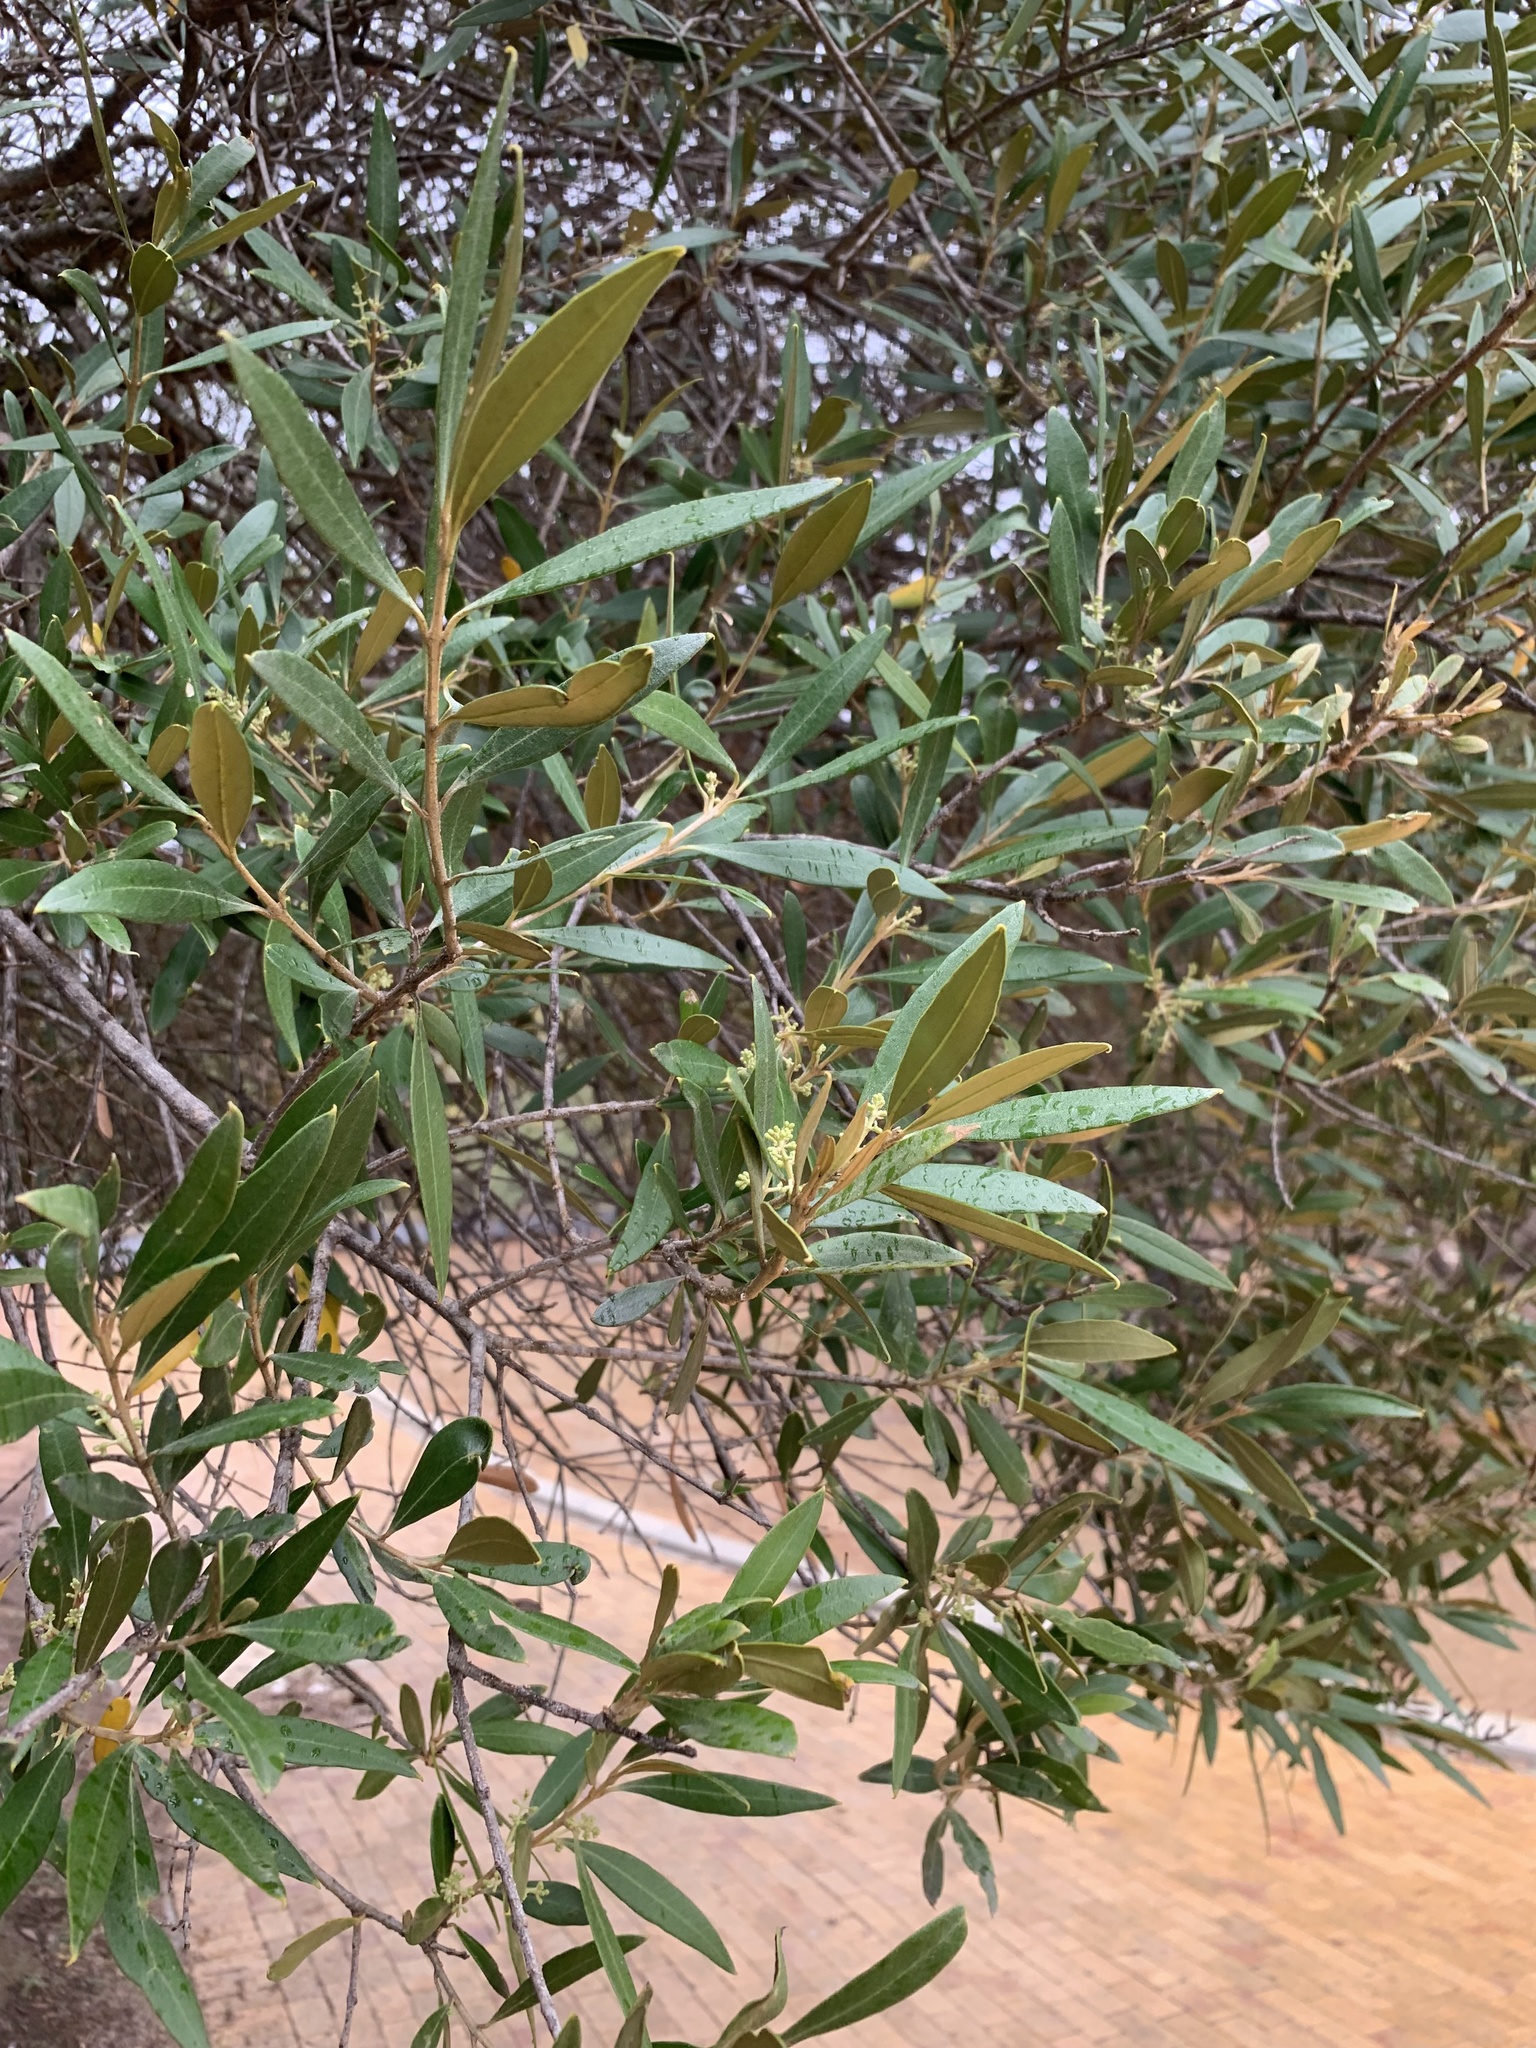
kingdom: Plantae
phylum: Tracheophyta
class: Magnoliopsida
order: Lamiales
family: Oleaceae
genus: Olea
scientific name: Olea europaea
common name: Olive
